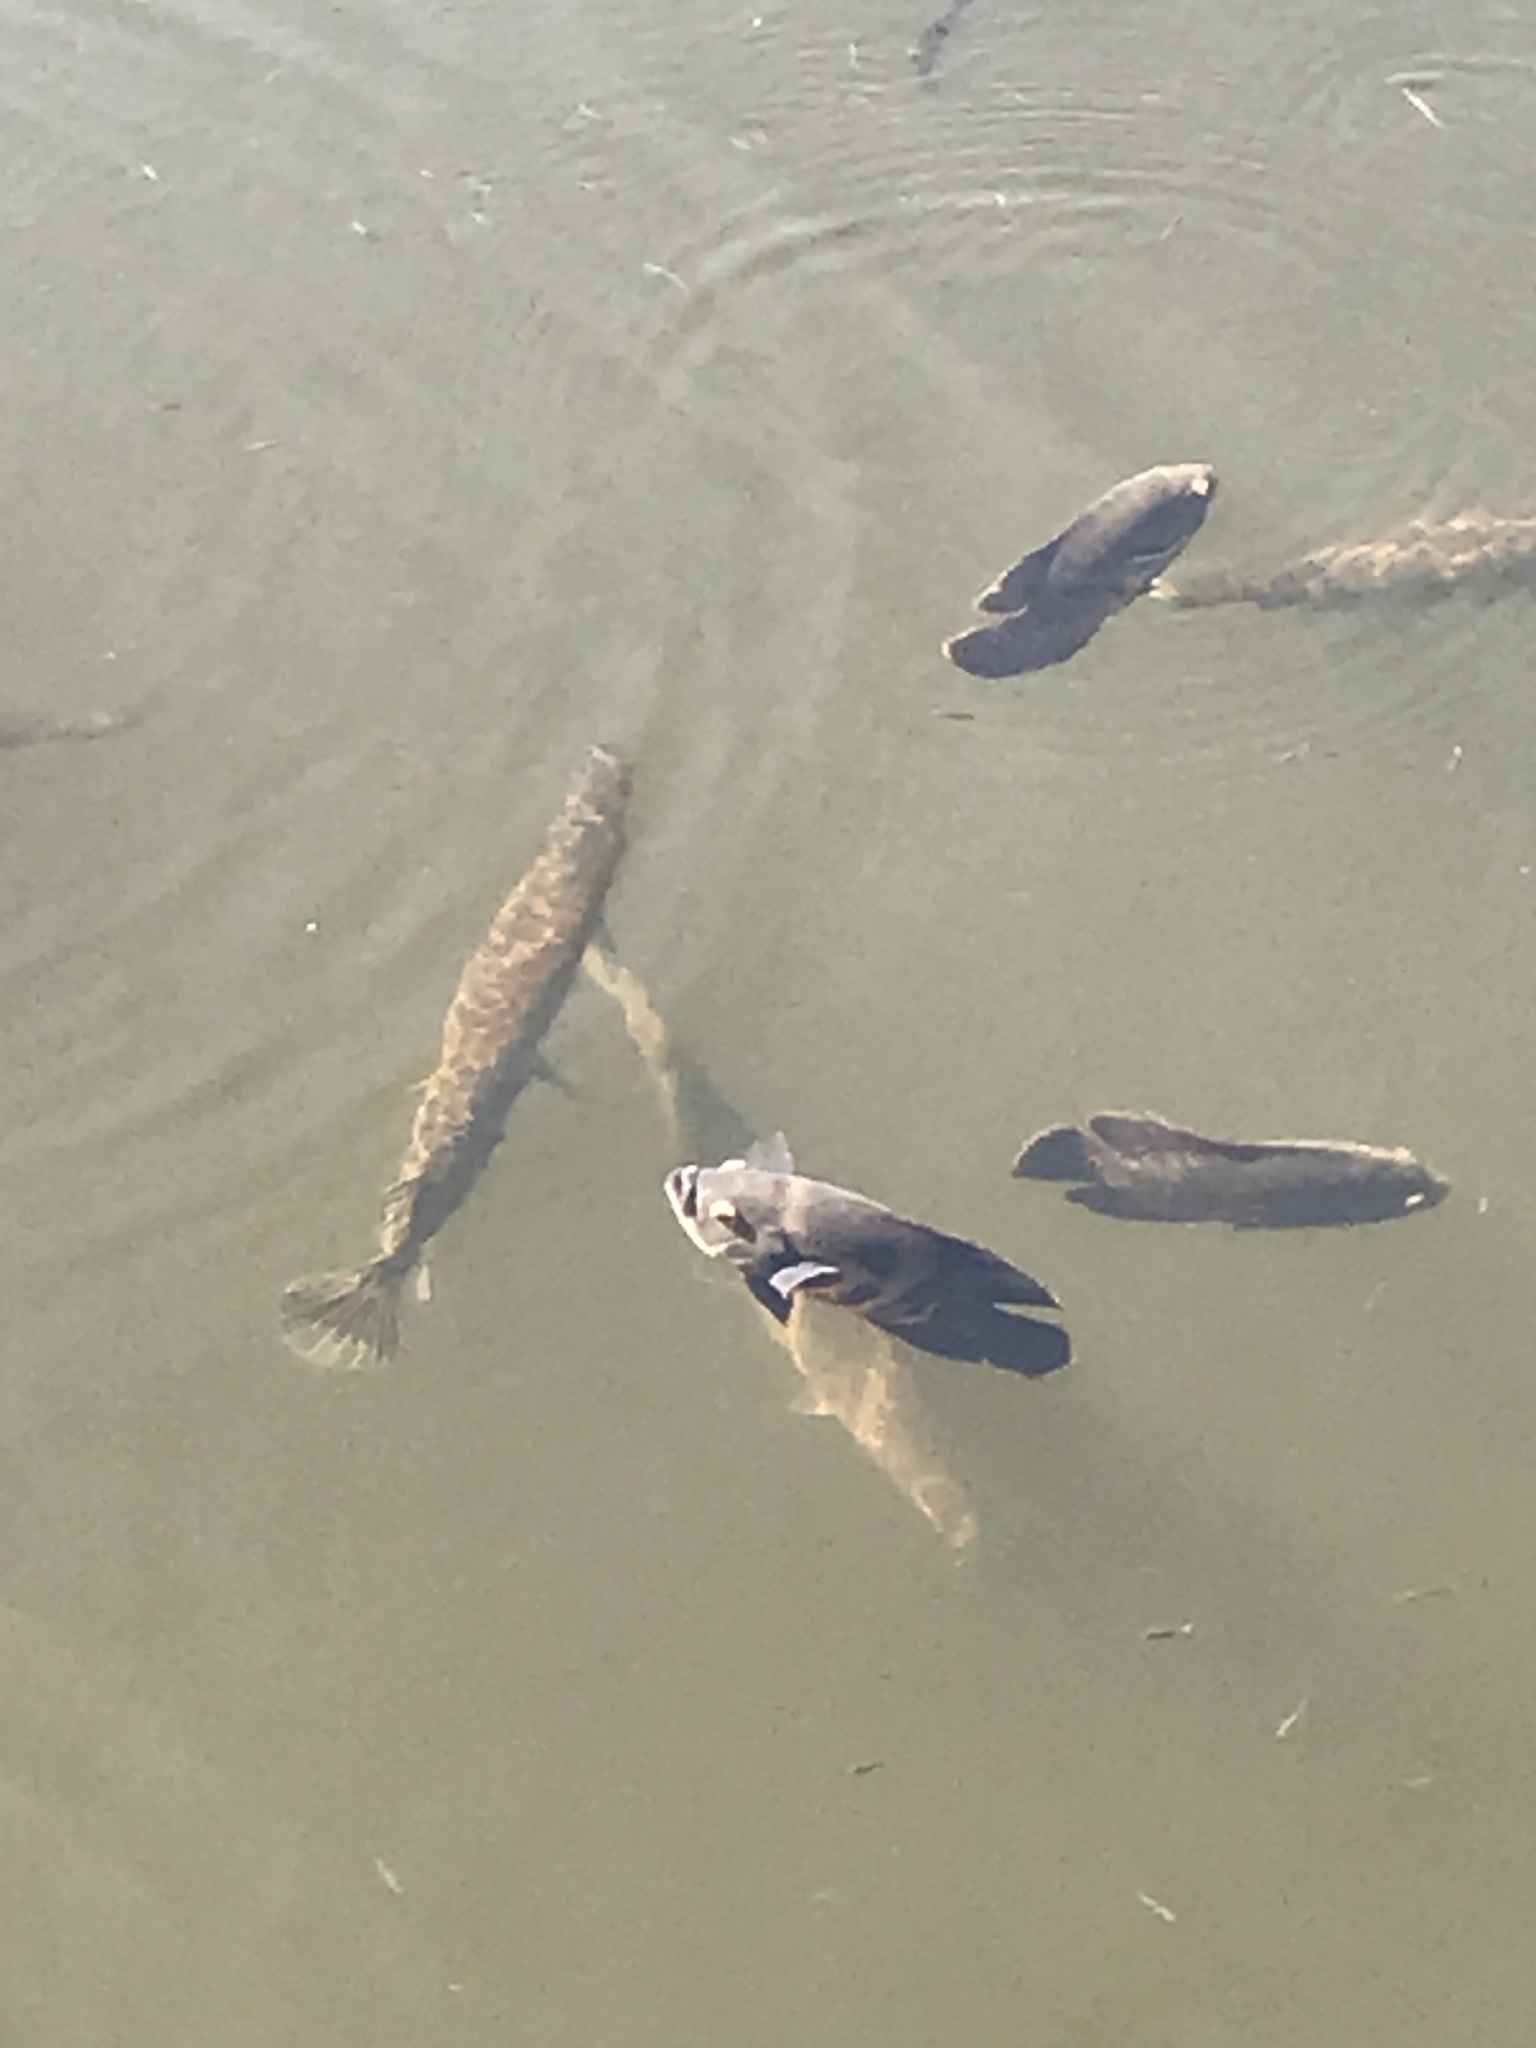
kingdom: Animalia
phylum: Chordata
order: Lepisosteiformes
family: Lepisosteidae
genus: Lepisosteus
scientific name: Lepisosteus platyrhincus
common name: Florida gar
